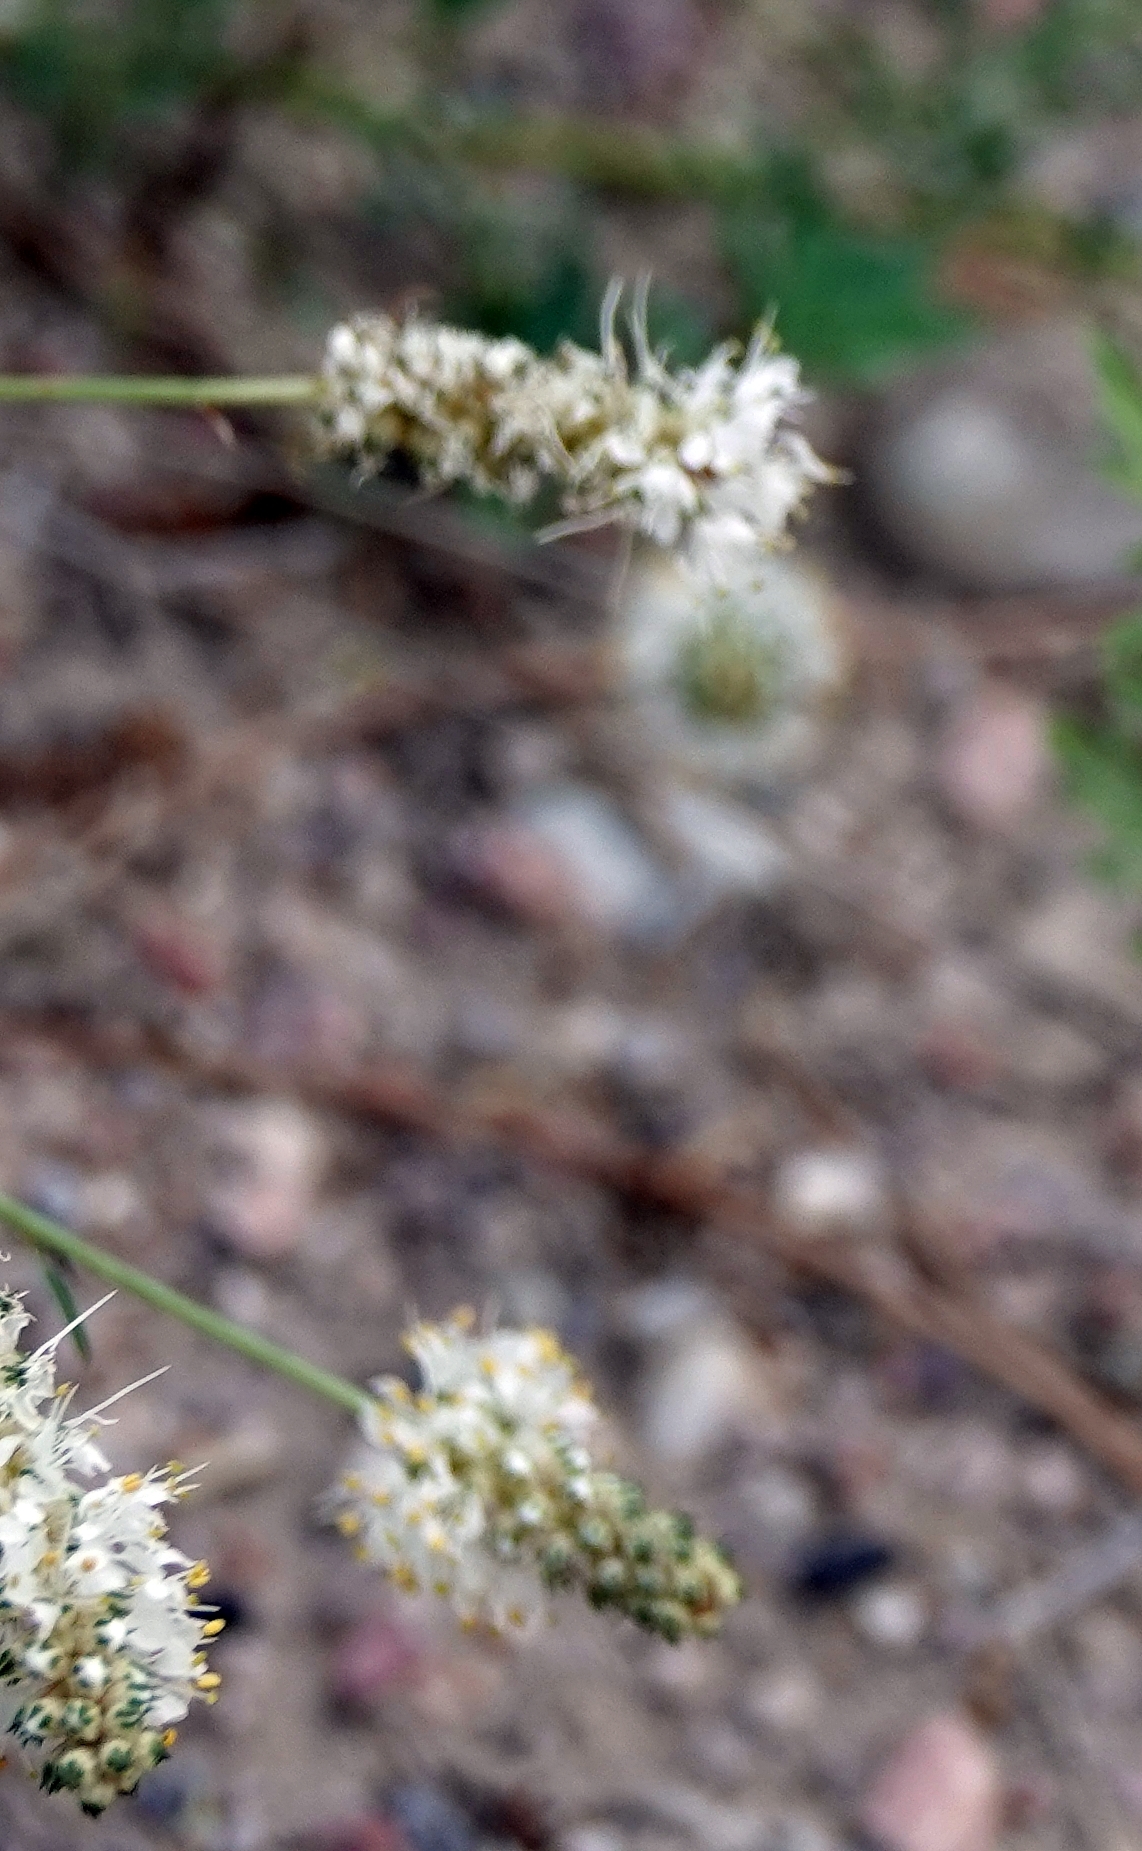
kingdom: Plantae
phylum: Tracheophyta
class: Magnoliopsida
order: Fabales
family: Fabaceae
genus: Dalea
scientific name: Dalea candida
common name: White prairie-clover
